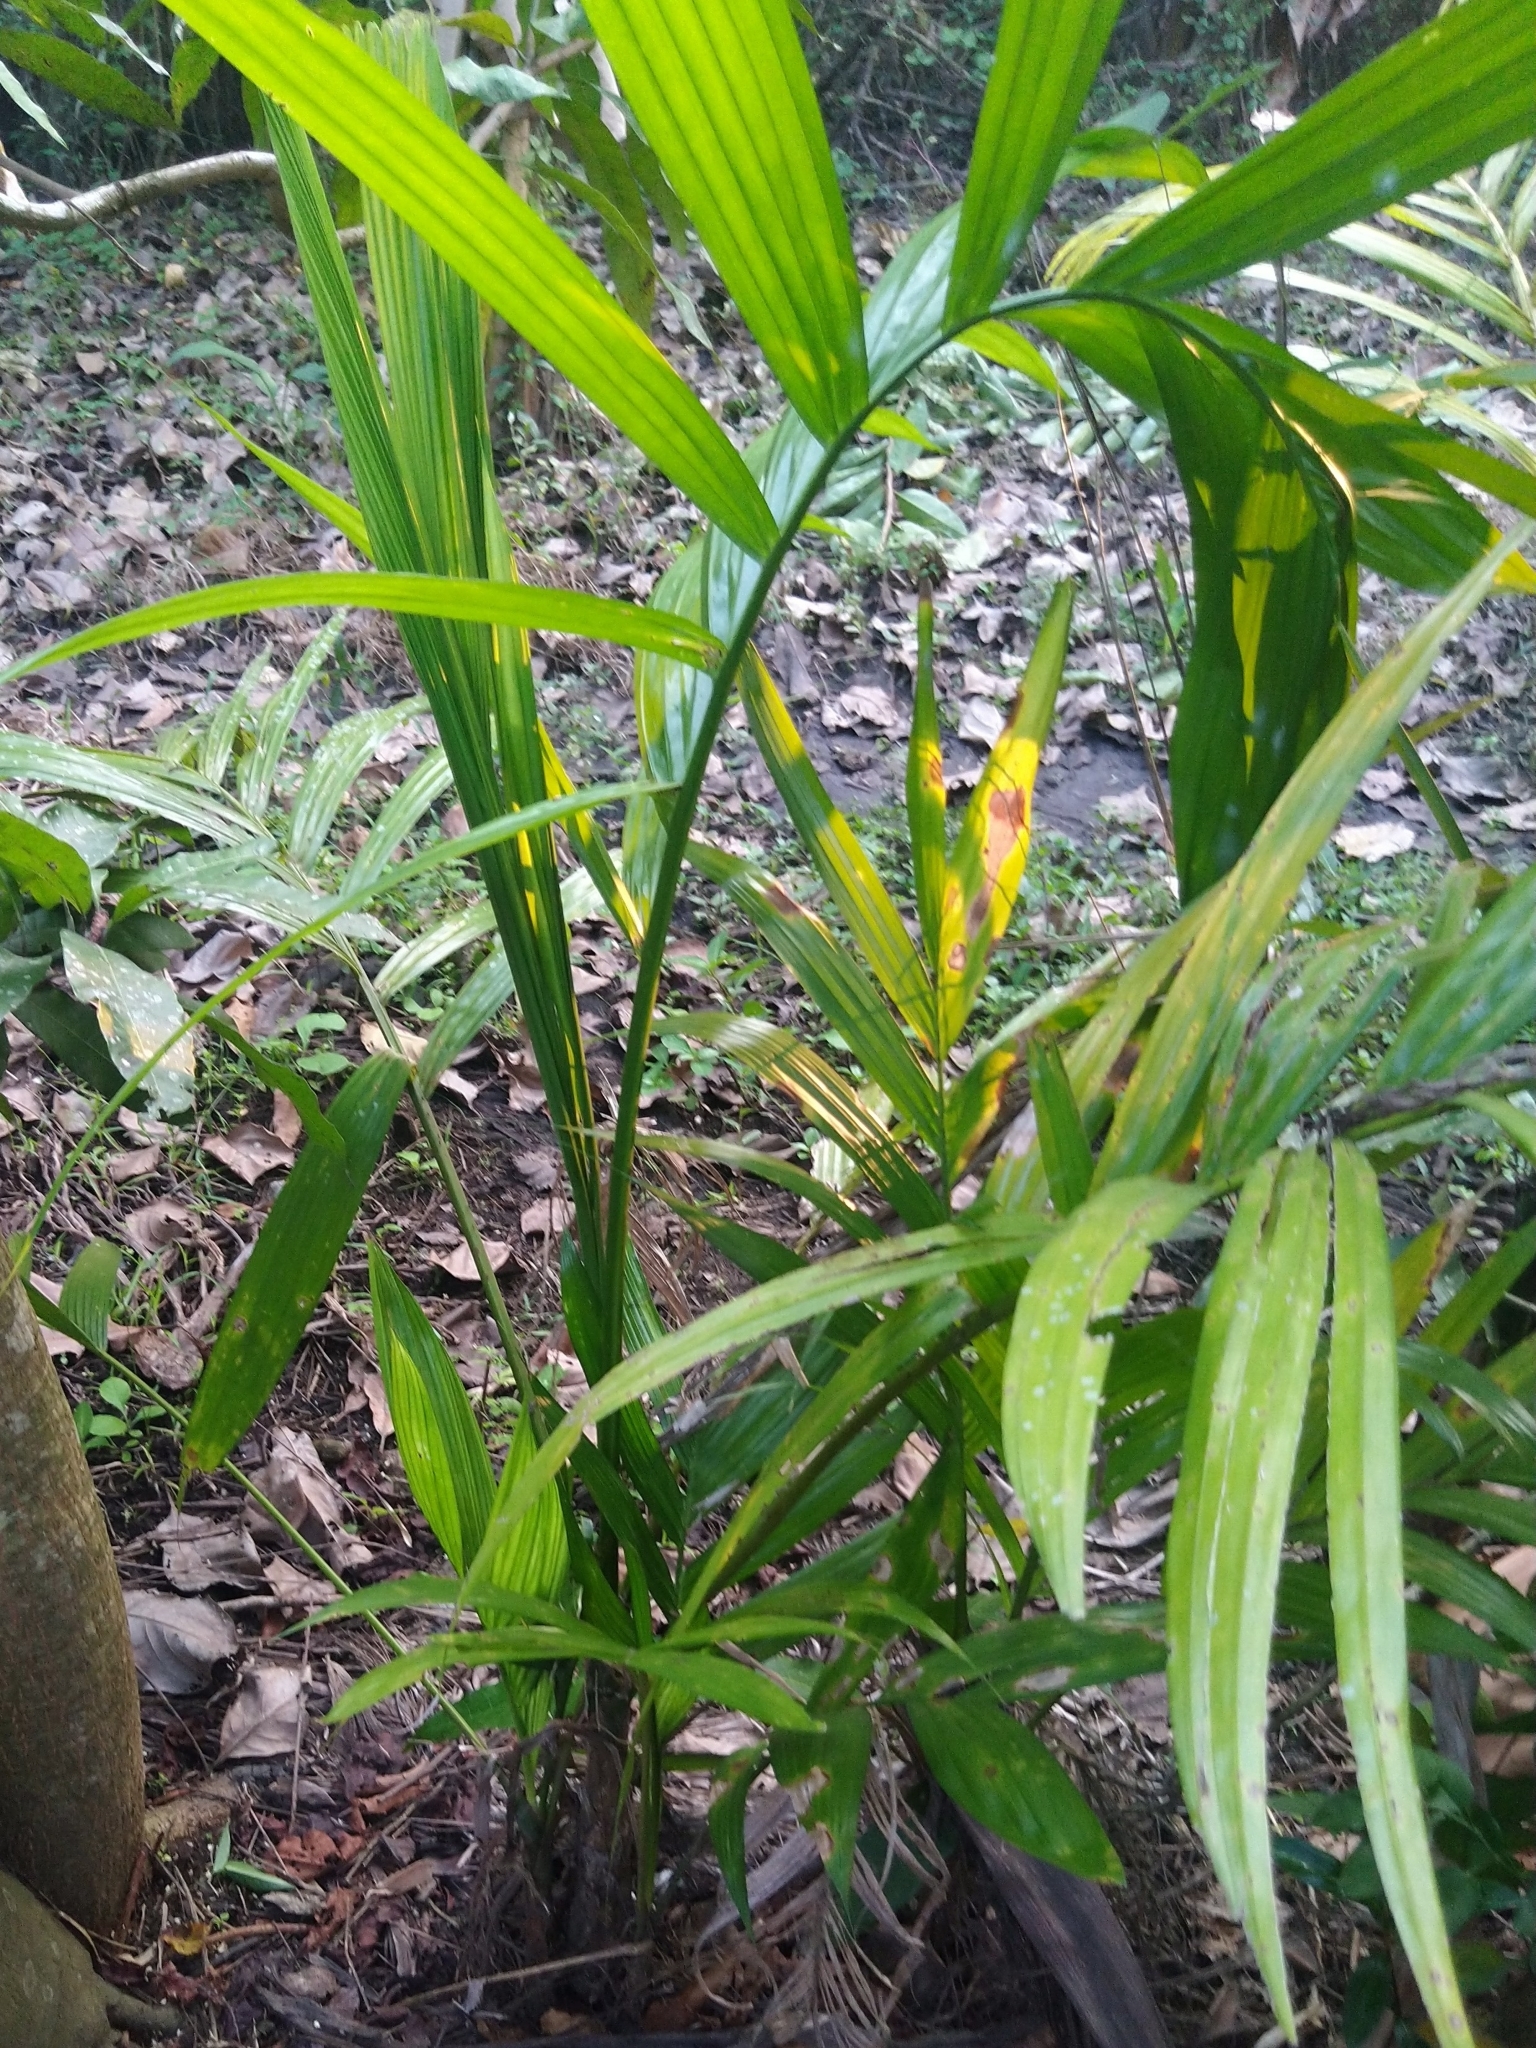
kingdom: Plantae
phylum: Tracheophyta
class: Liliopsida
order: Arecales
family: Arecaceae
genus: Areca
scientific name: Areca catechu
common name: Indian-nut
